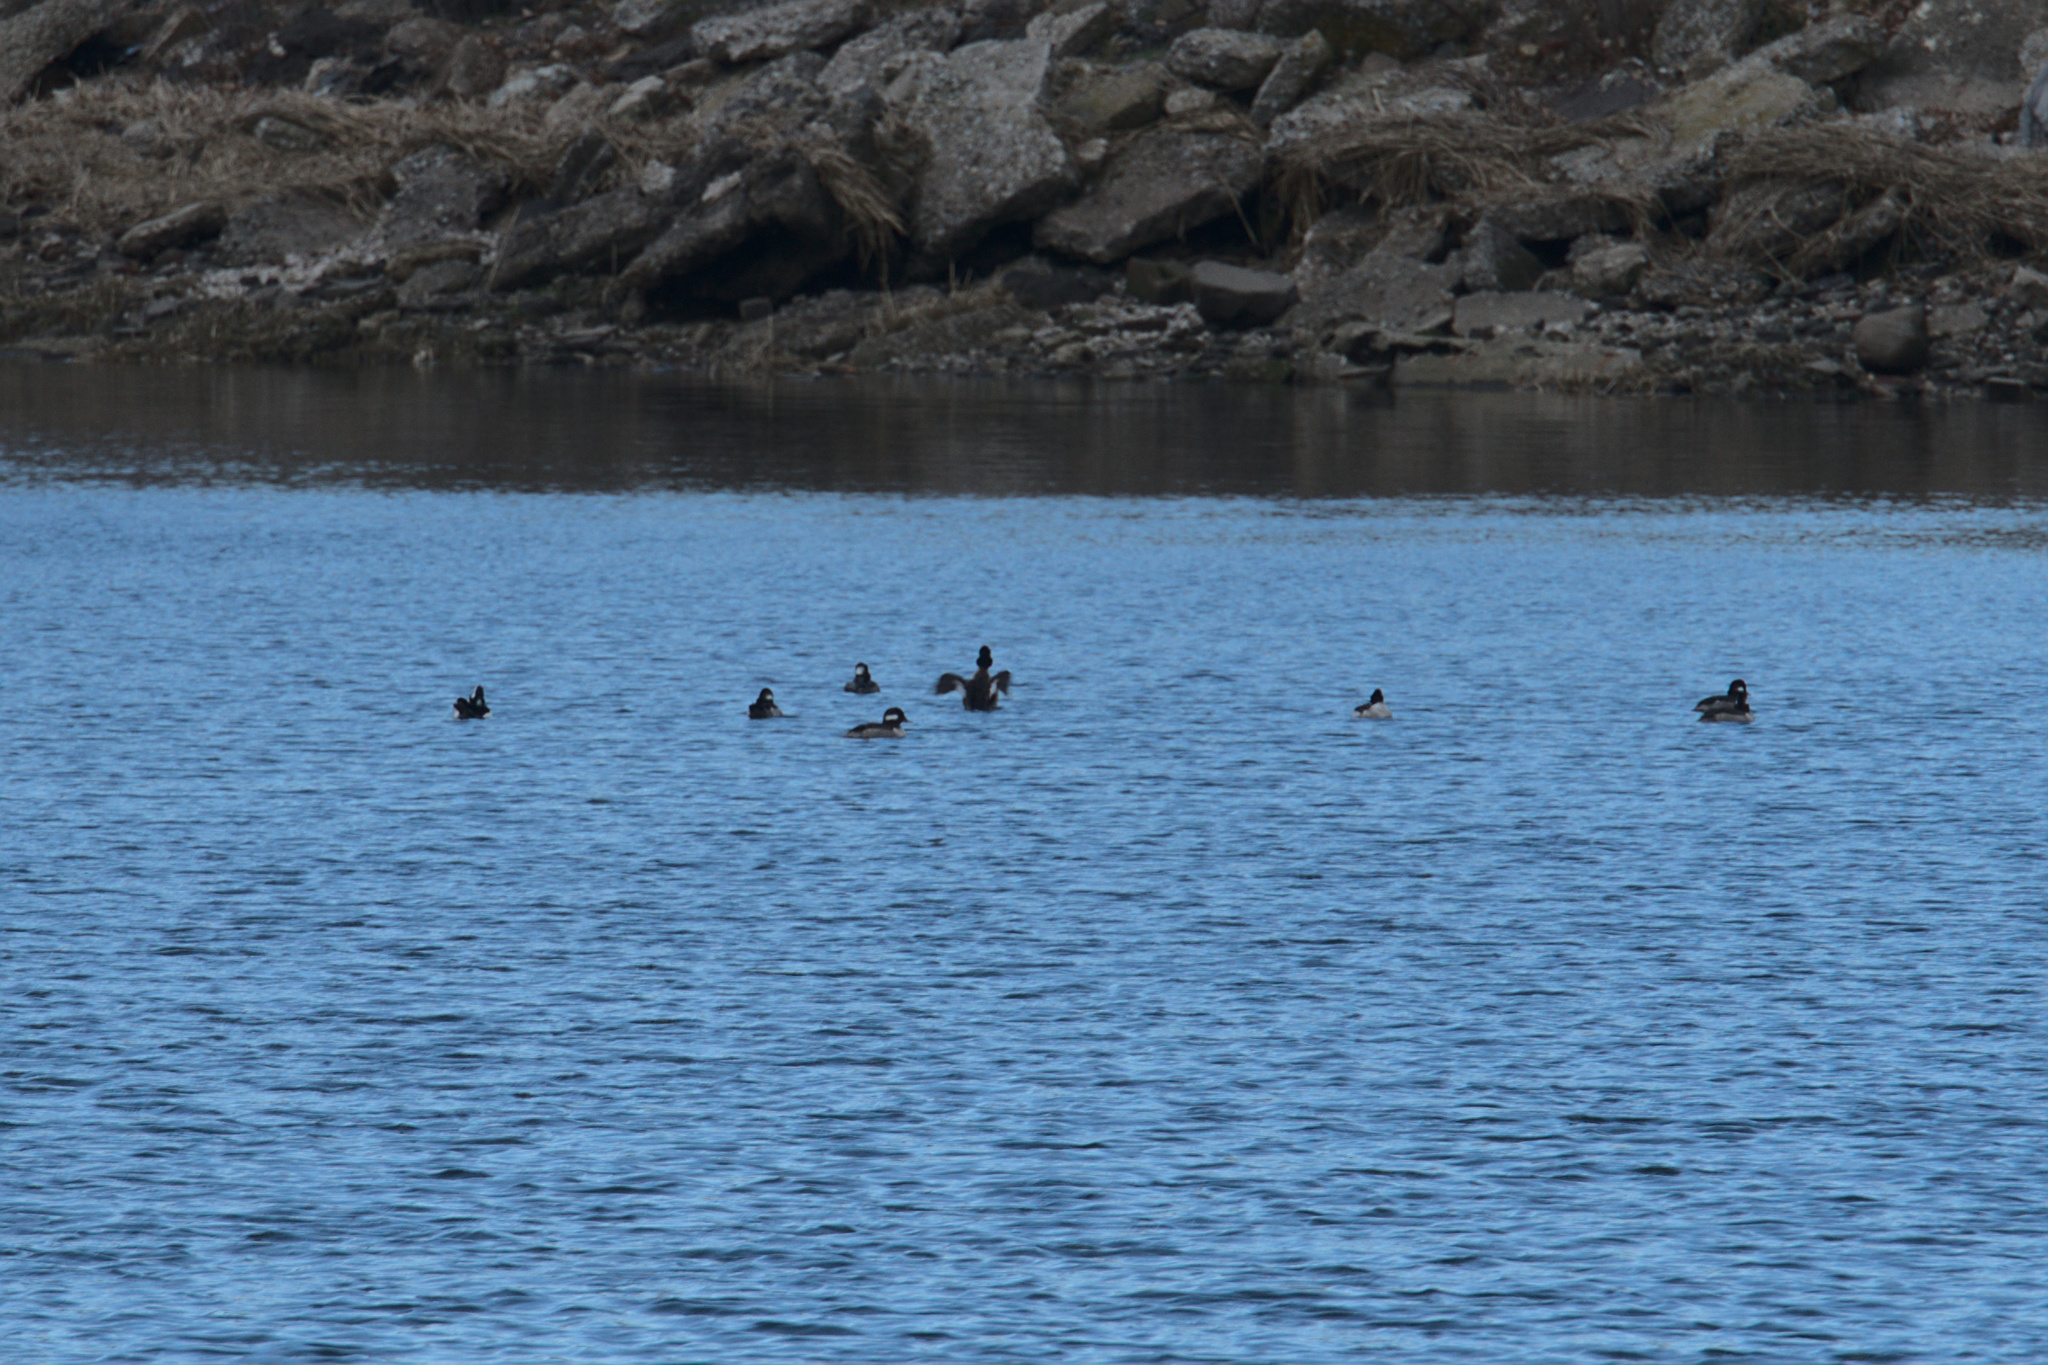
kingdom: Animalia
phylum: Chordata
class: Aves
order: Anseriformes
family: Anatidae
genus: Bucephala
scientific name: Bucephala albeola
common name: Bufflehead
